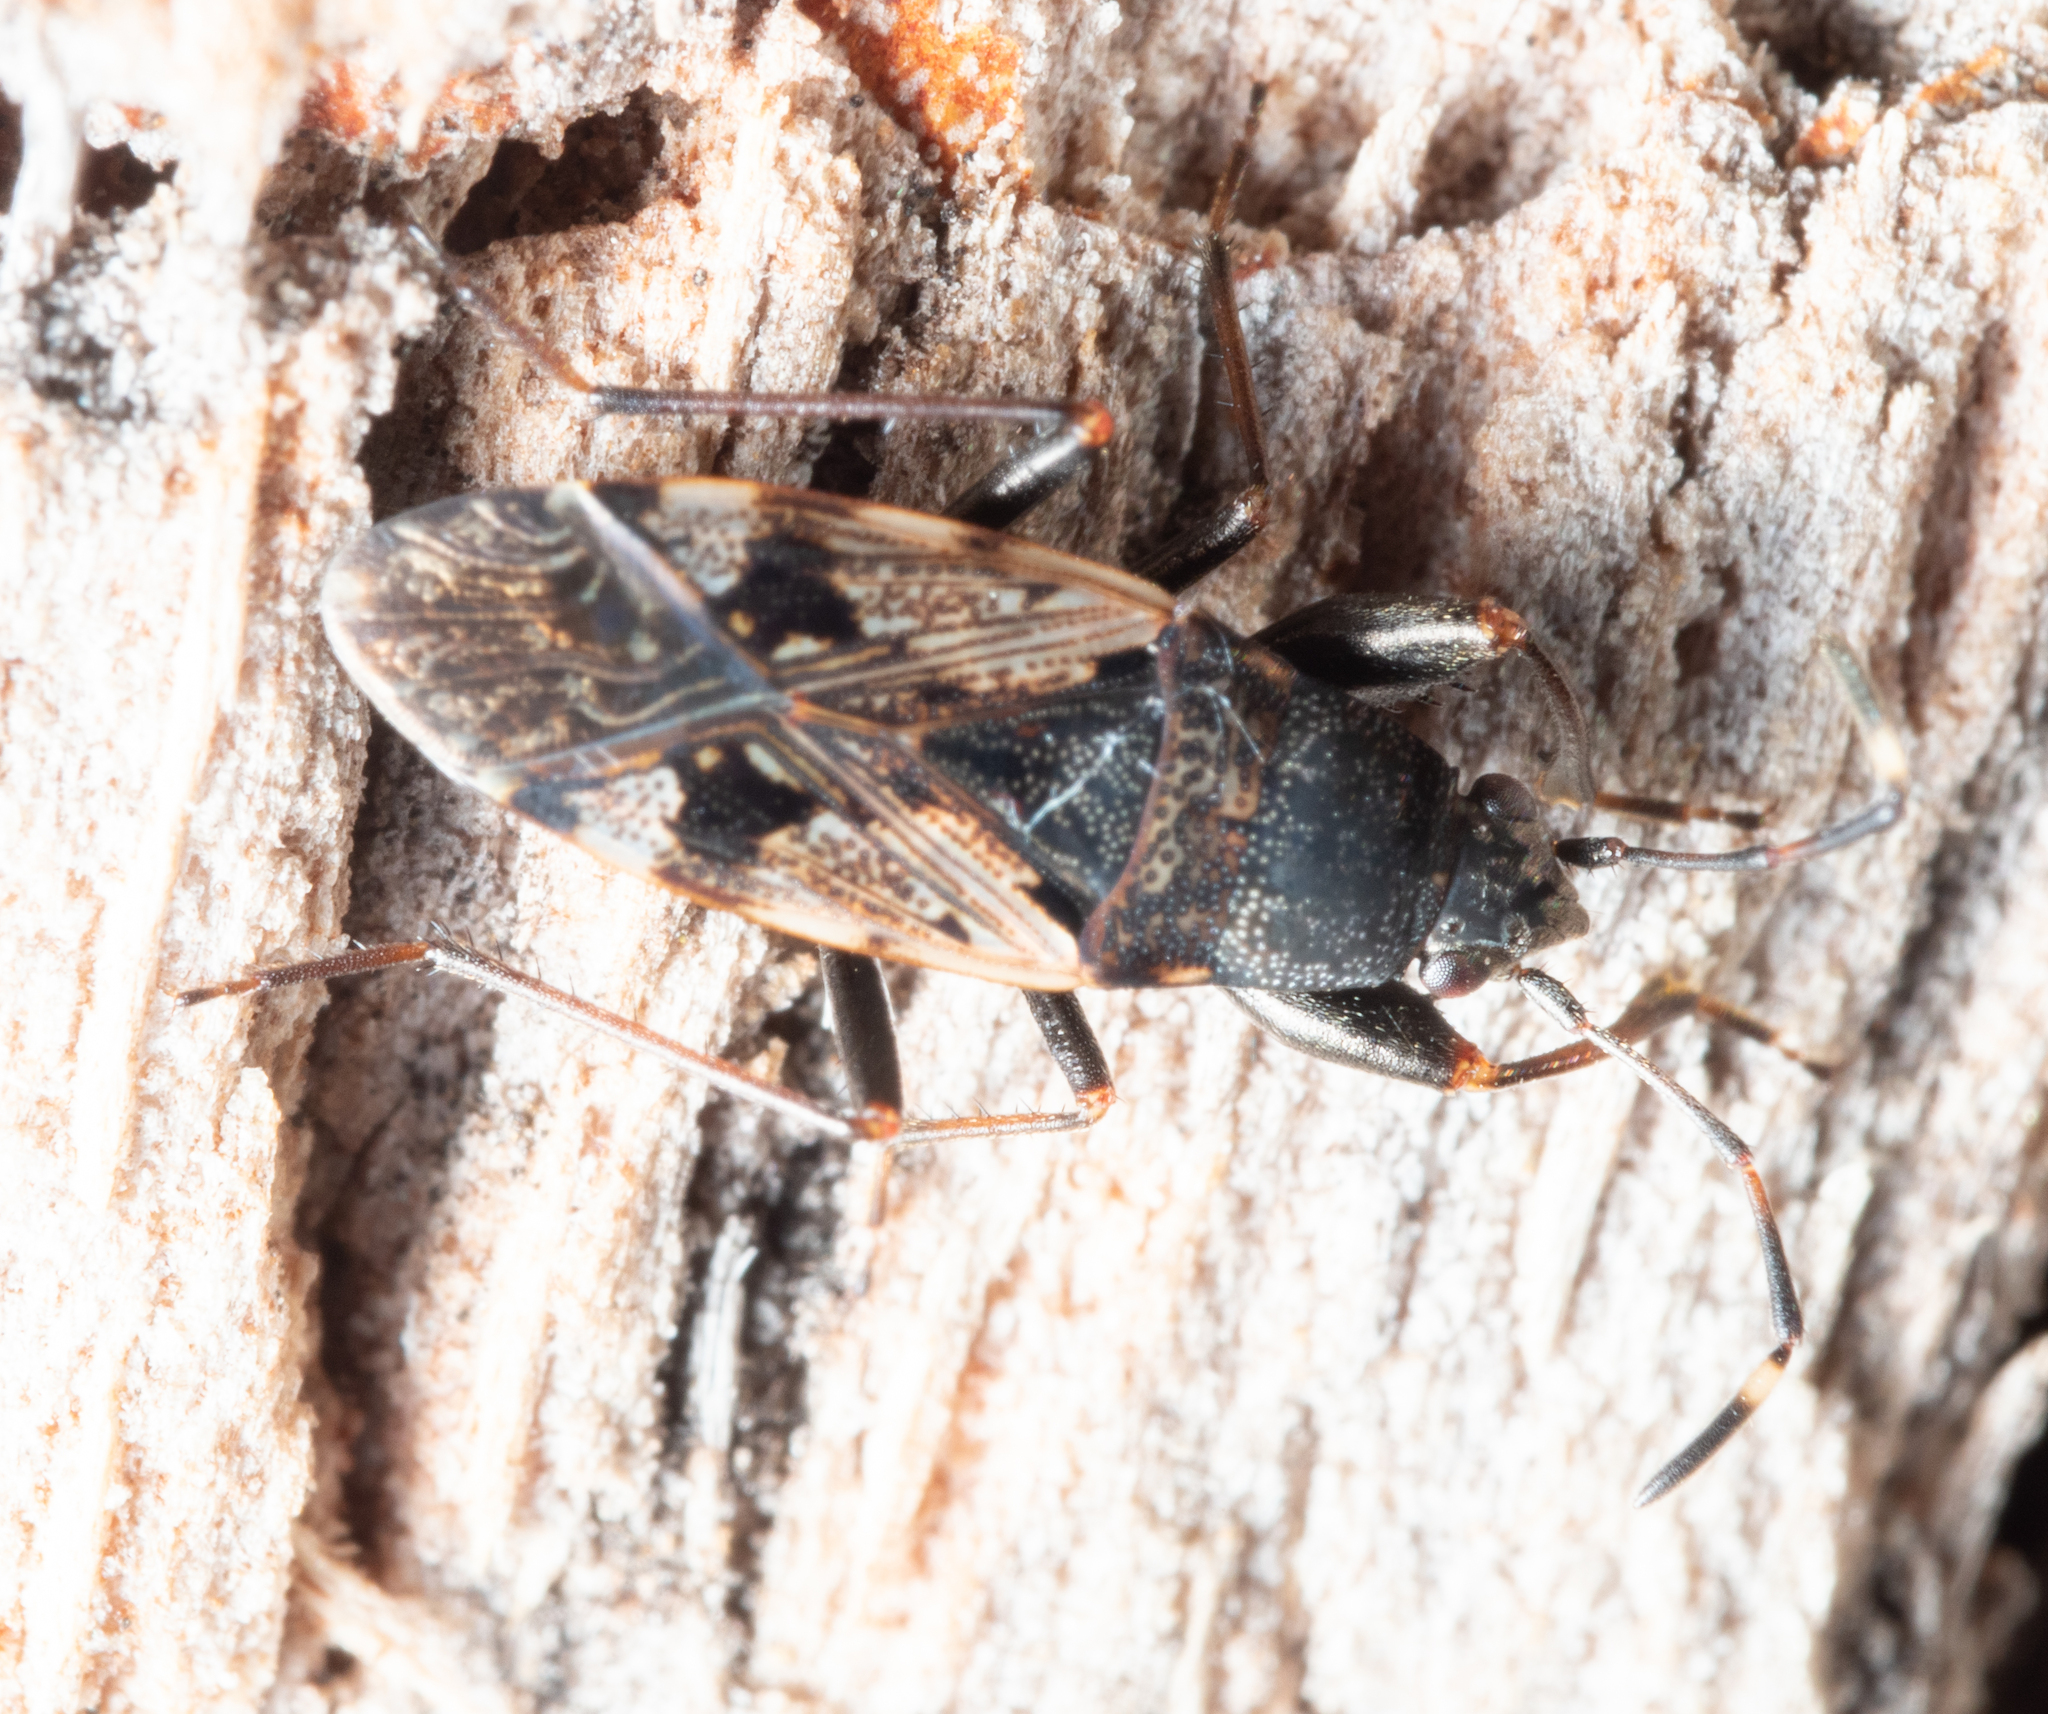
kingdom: Animalia
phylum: Arthropoda
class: Insecta
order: Hemiptera
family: Rhyparochromidae
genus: Euander
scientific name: Euander lacertosus
